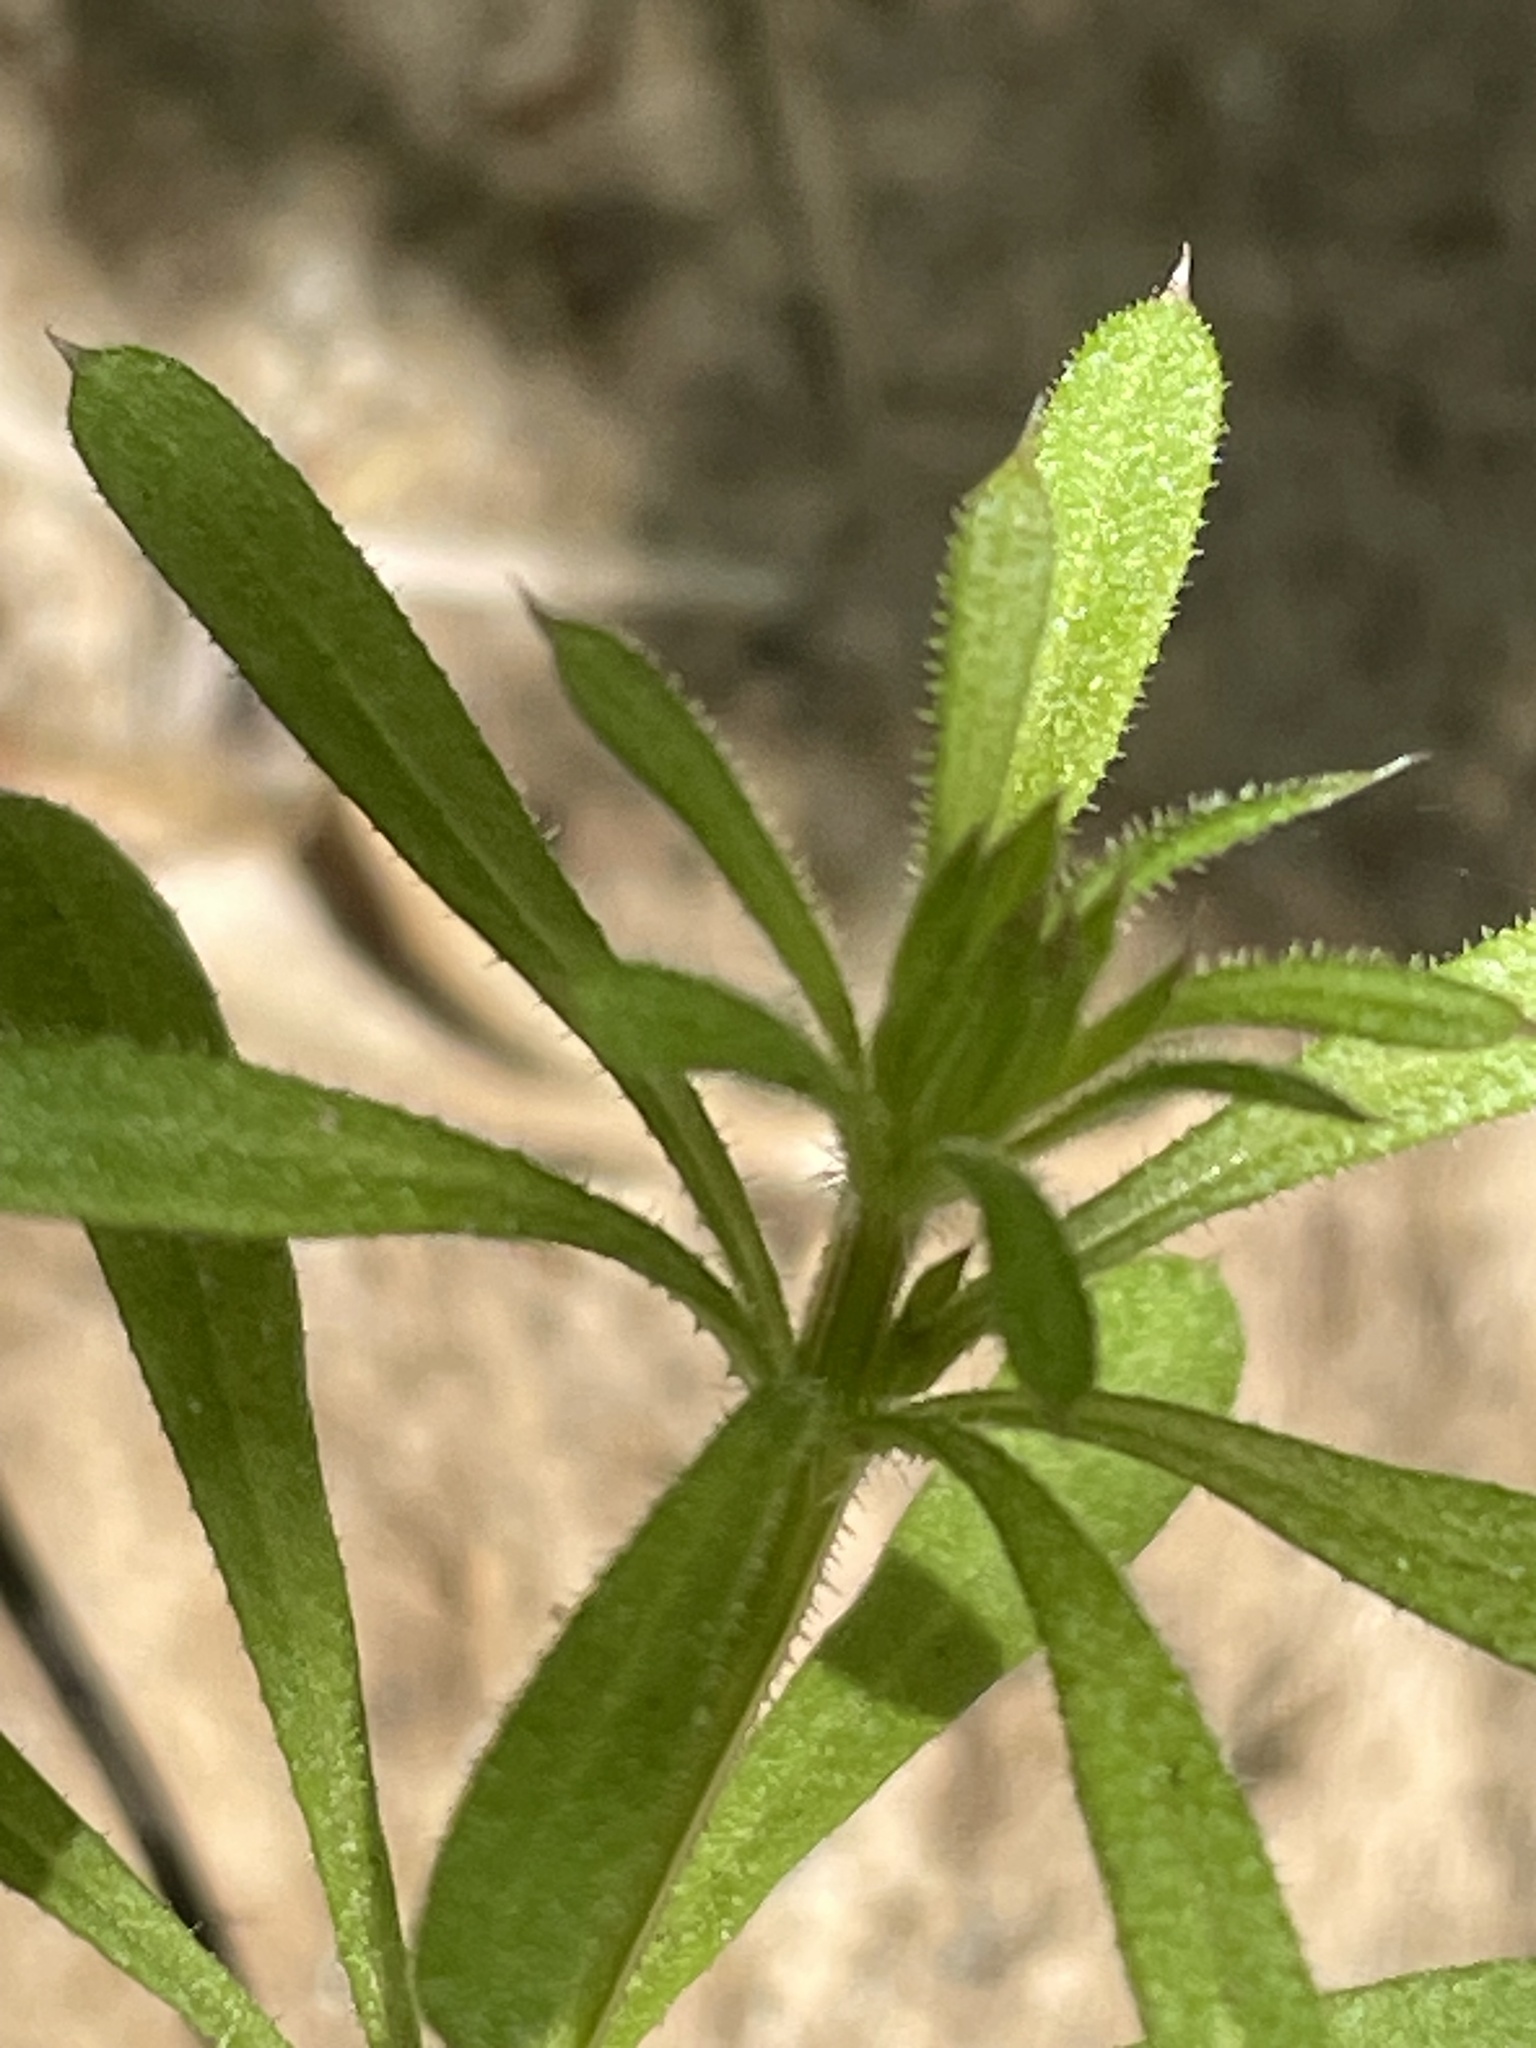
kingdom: Plantae
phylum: Tracheophyta
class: Magnoliopsida
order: Gentianales
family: Rubiaceae
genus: Galium
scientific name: Galium aparine
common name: Cleavers
